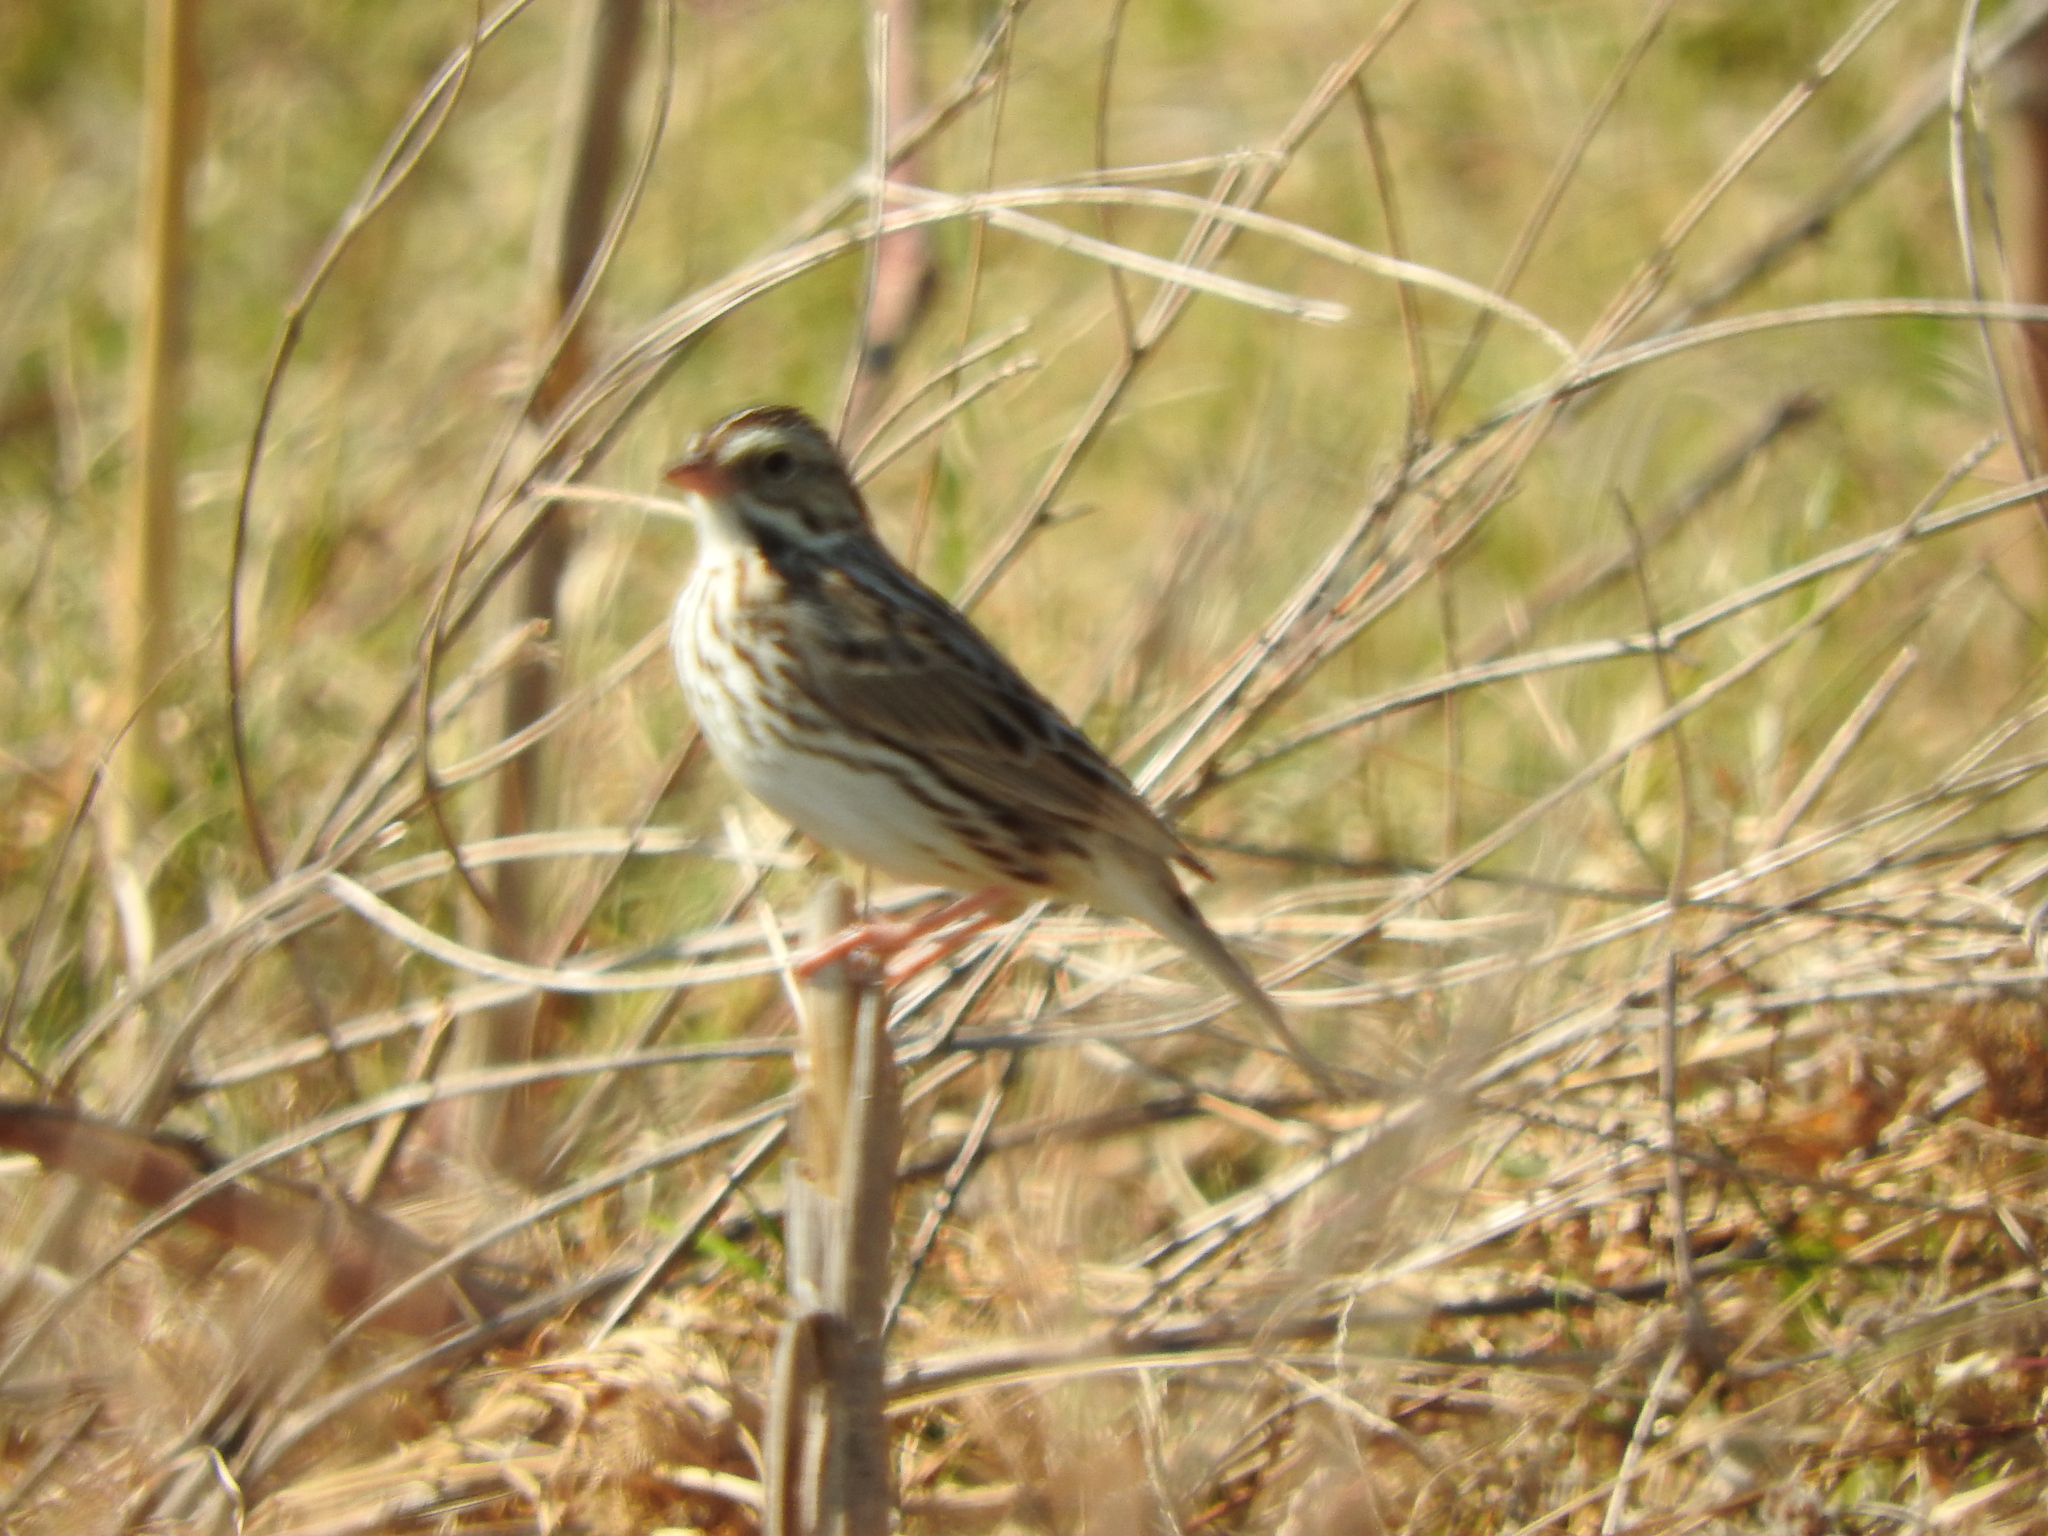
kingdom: Animalia
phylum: Chordata
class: Aves
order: Passeriformes
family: Passerellidae
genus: Passerculus
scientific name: Passerculus sandwichensis
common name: Savannah sparrow
